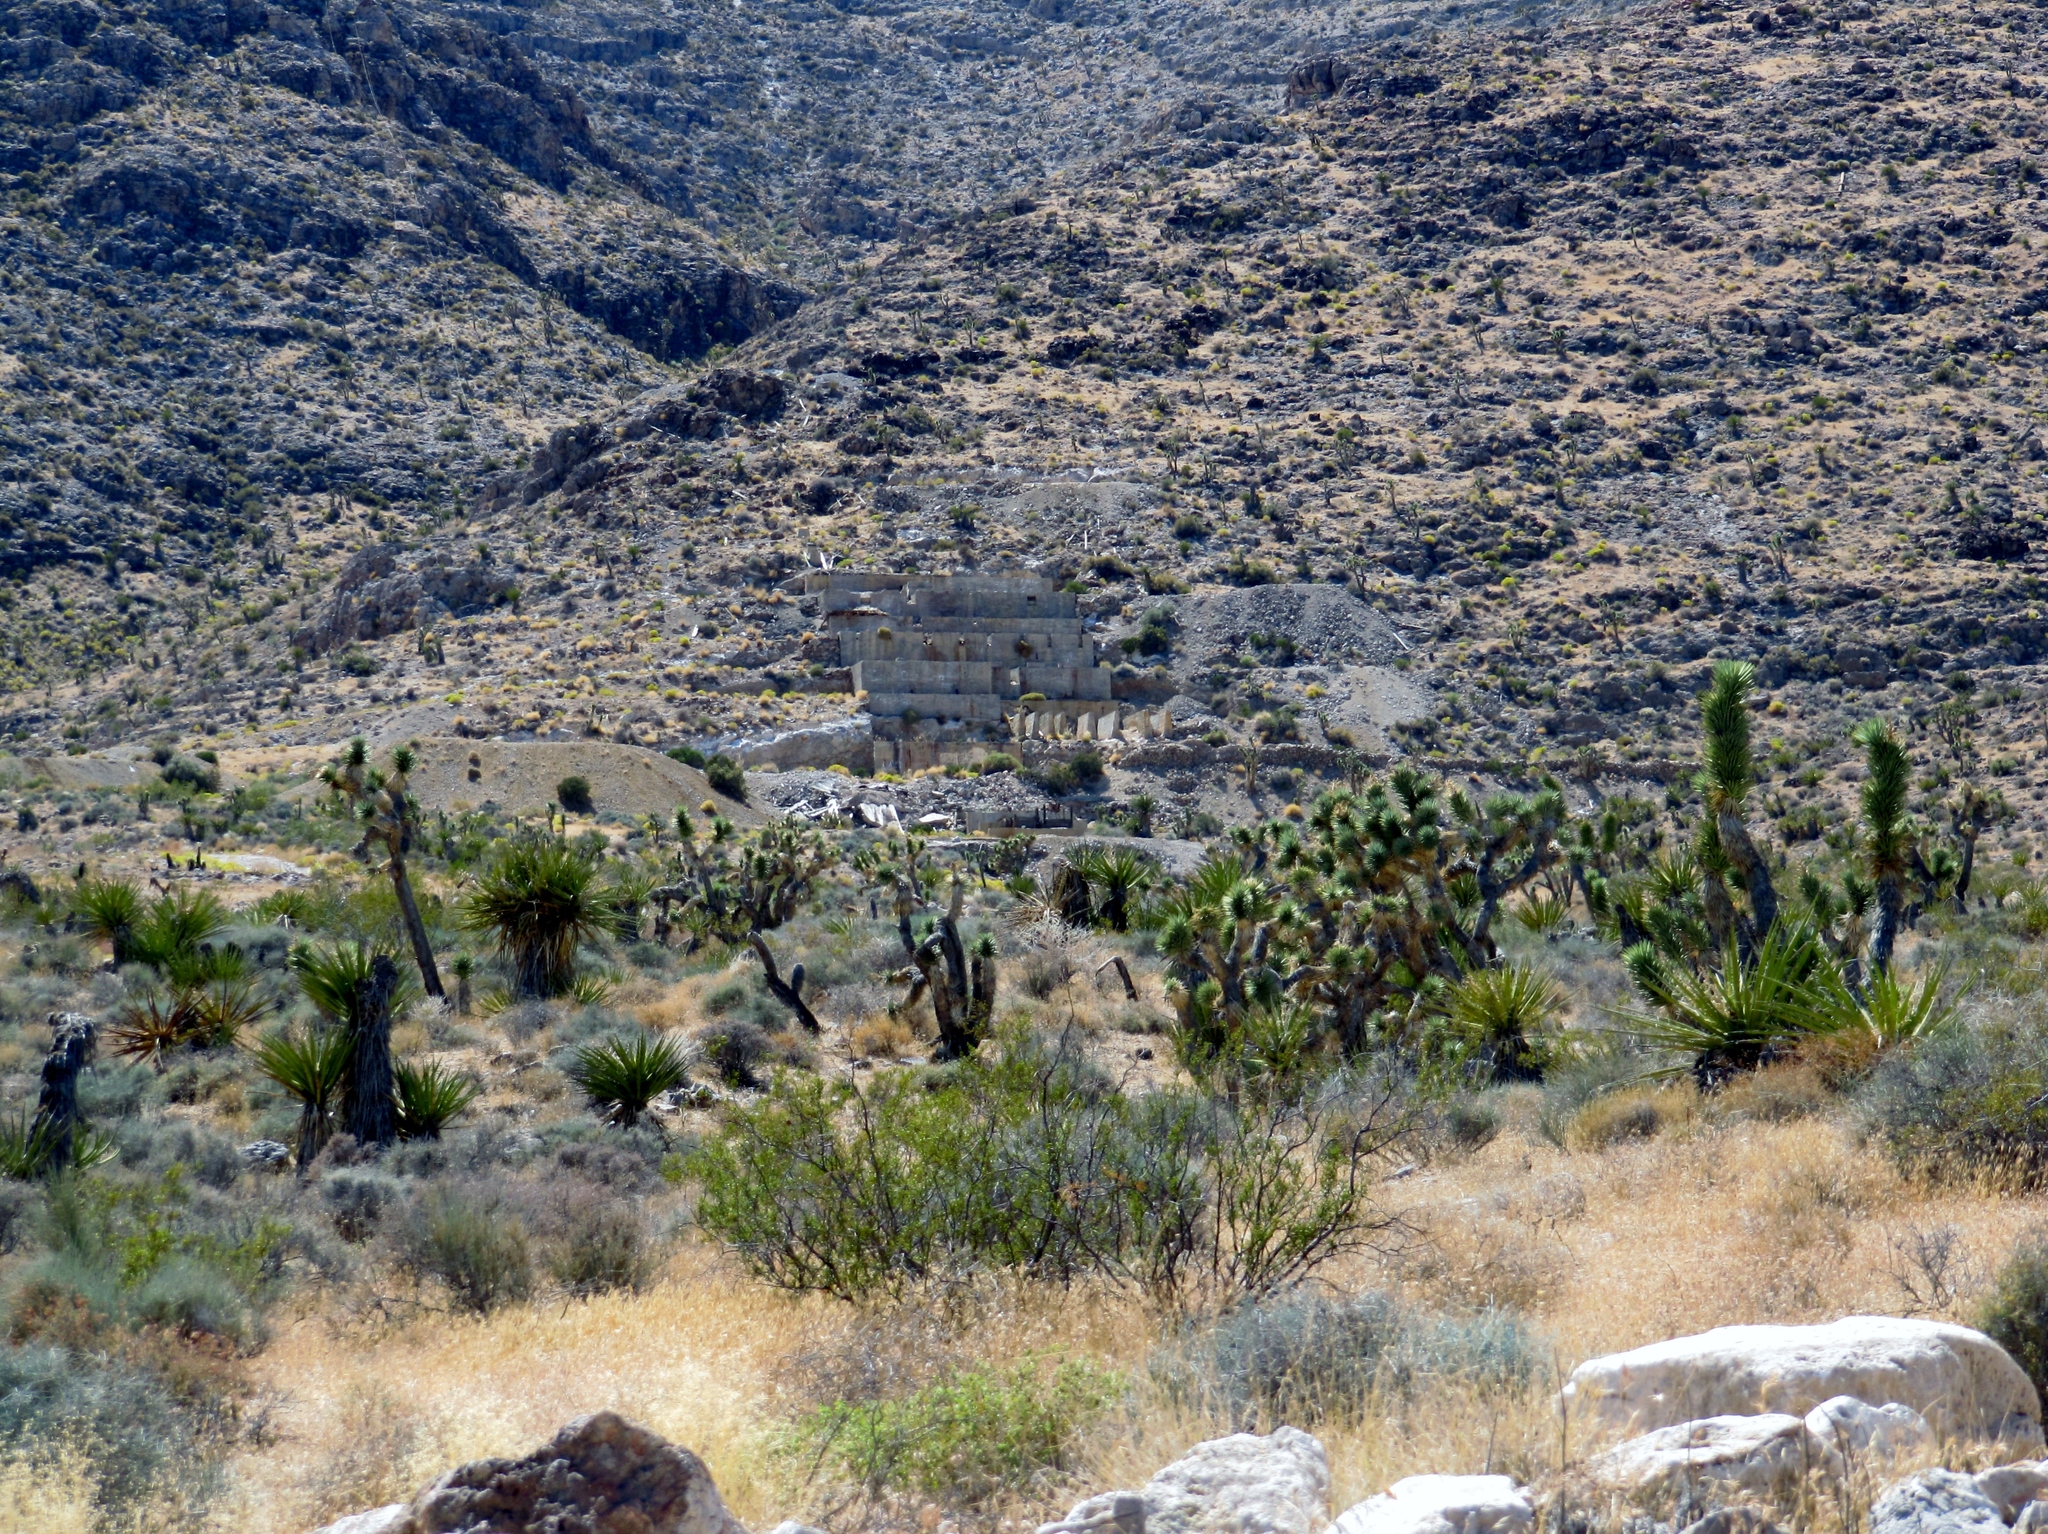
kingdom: Plantae
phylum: Tracheophyta
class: Liliopsida
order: Asparagales
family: Asparagaceae
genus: Yucca
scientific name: Yucca brevifolia
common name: Joshua tree
